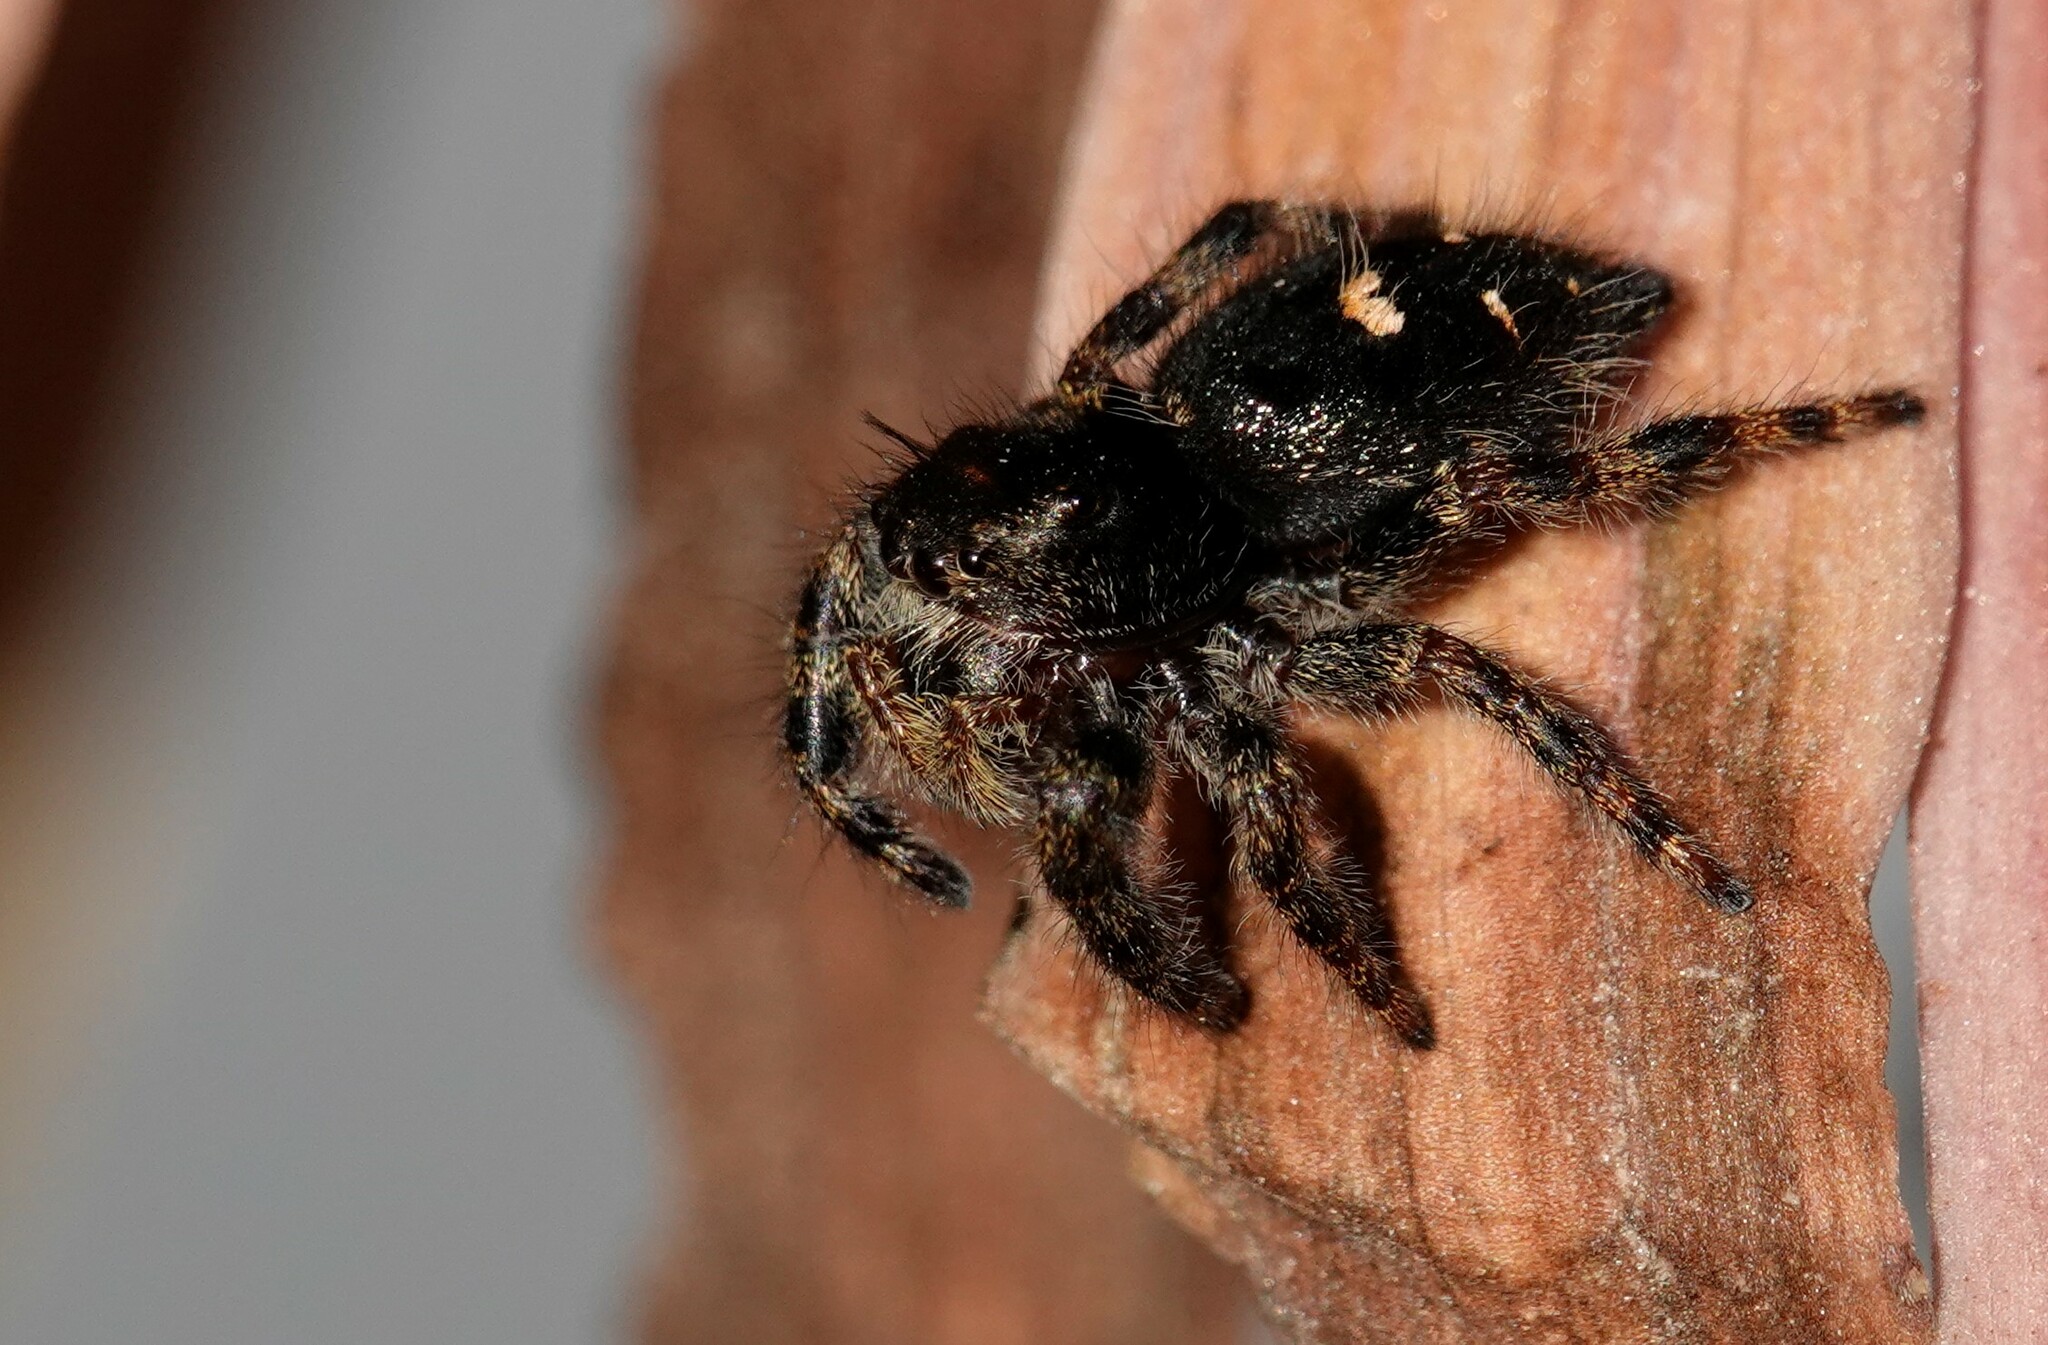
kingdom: Animalia
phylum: Arthropoda
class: Arachnida
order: Araneae
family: Salticidae
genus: Phidippus
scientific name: Phidippus audax
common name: Bold jumper
